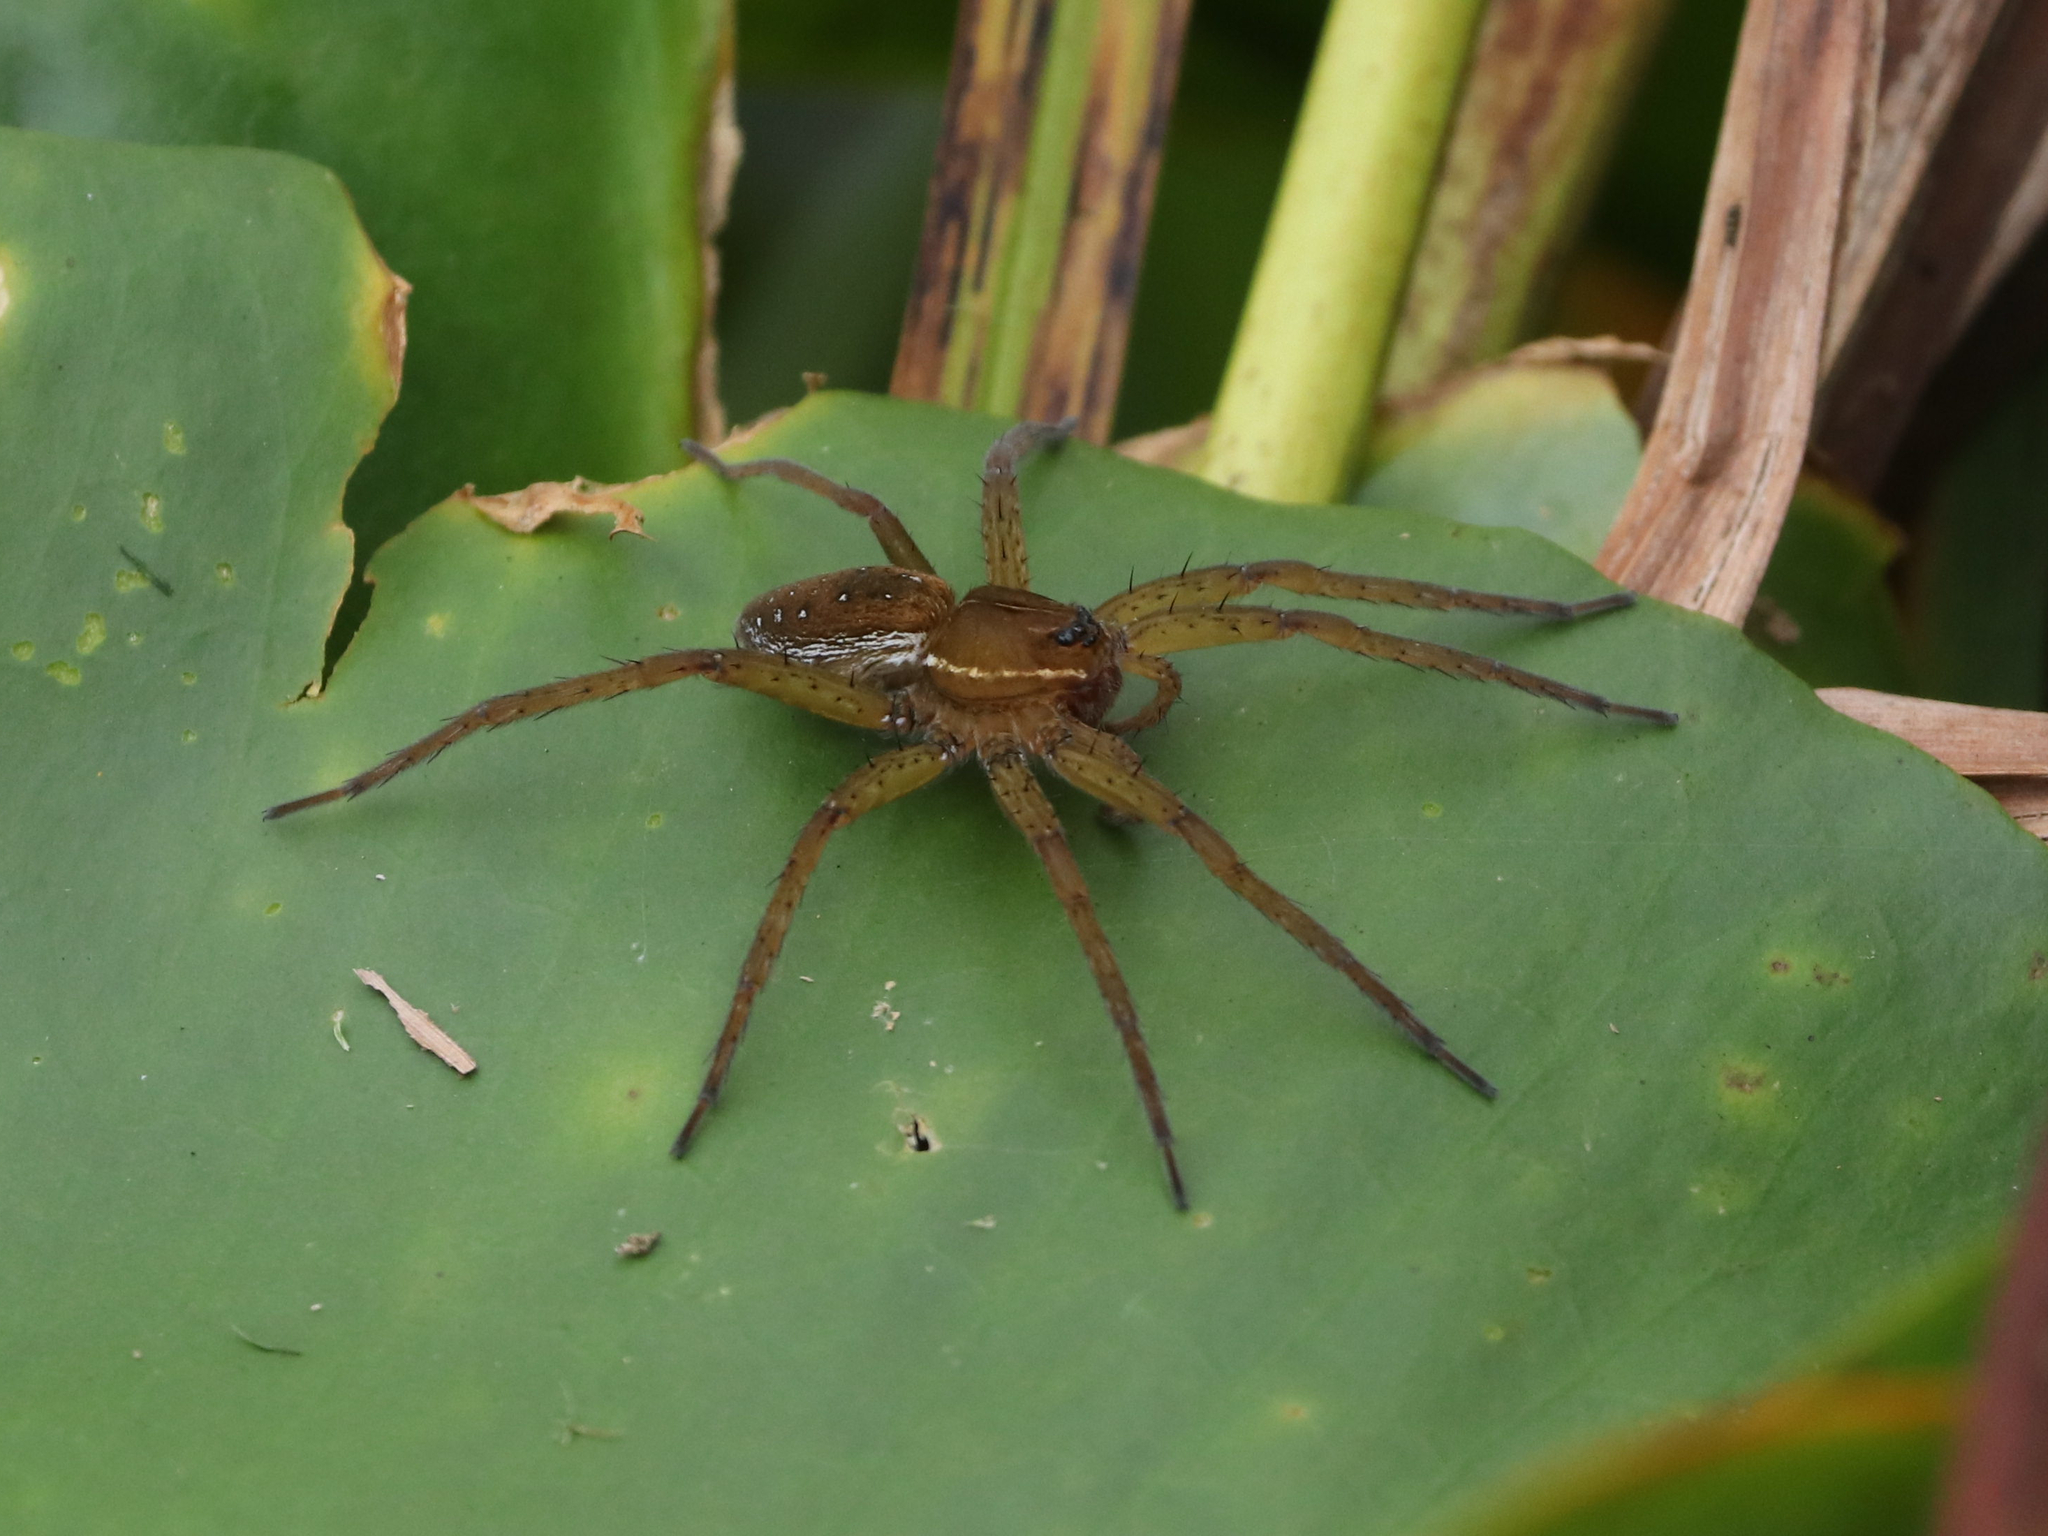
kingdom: Animalia
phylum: Arthropoda
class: Arachnida
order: Araneae
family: Pisauridae
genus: Dolomedes
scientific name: Dolomedes triton
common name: Six-spotted fishing spider
